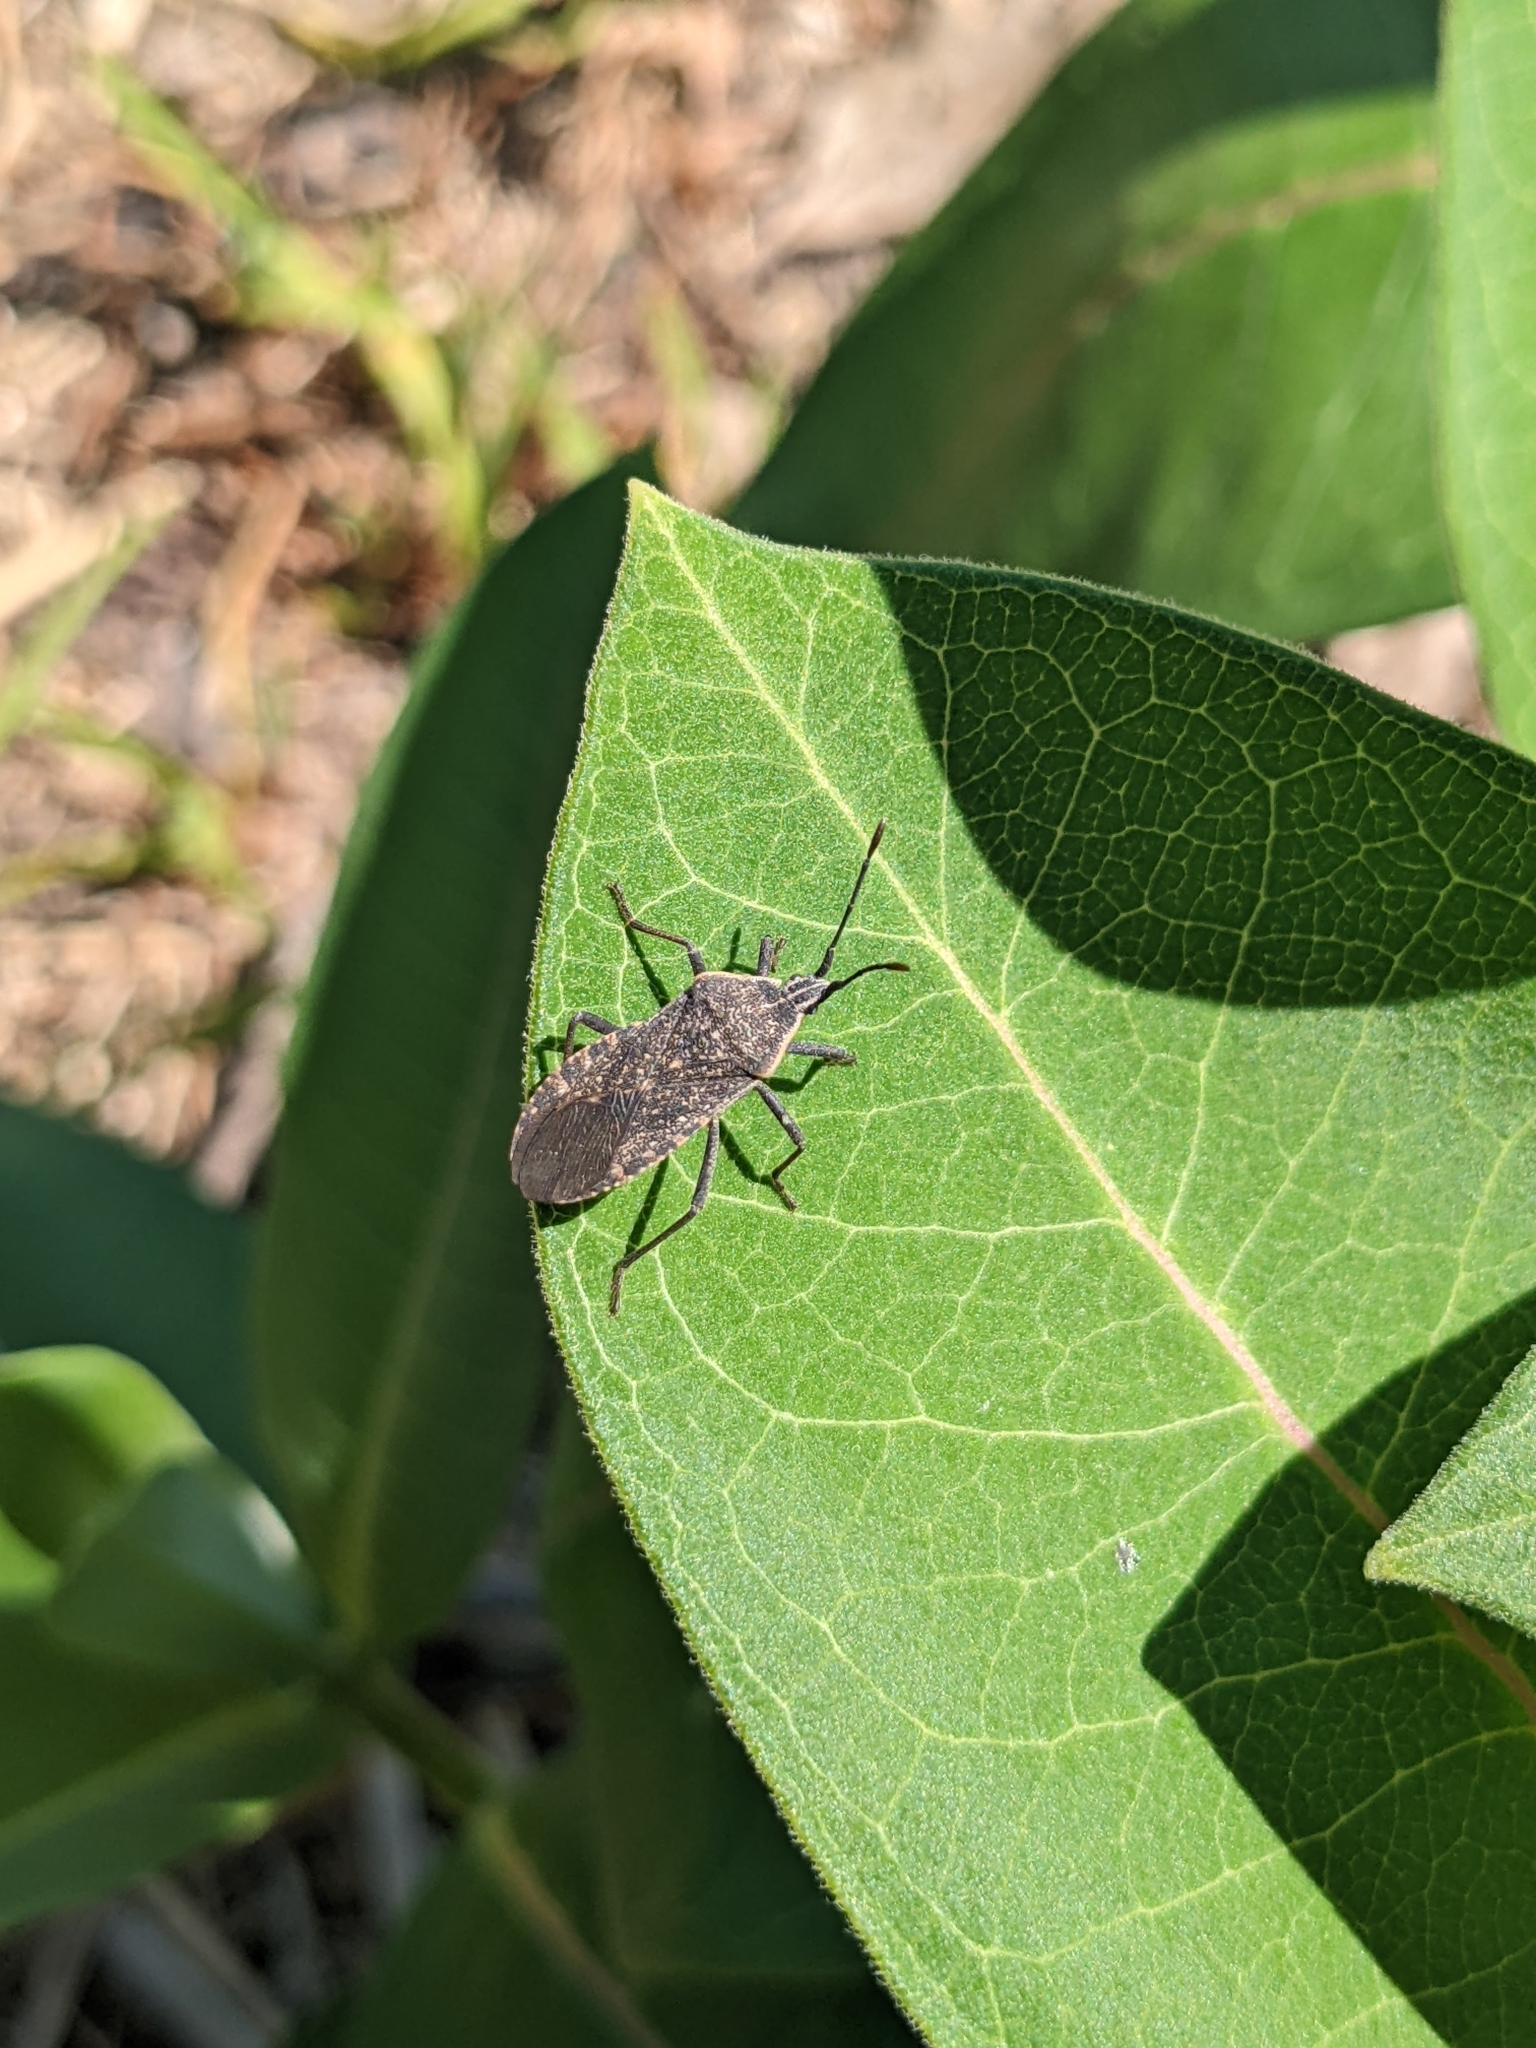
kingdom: Animalia
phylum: Arthropoda
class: Insecta
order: Hemiptera
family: Coreidae
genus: Anasa
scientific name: Anasa tristis
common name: Squash bug
